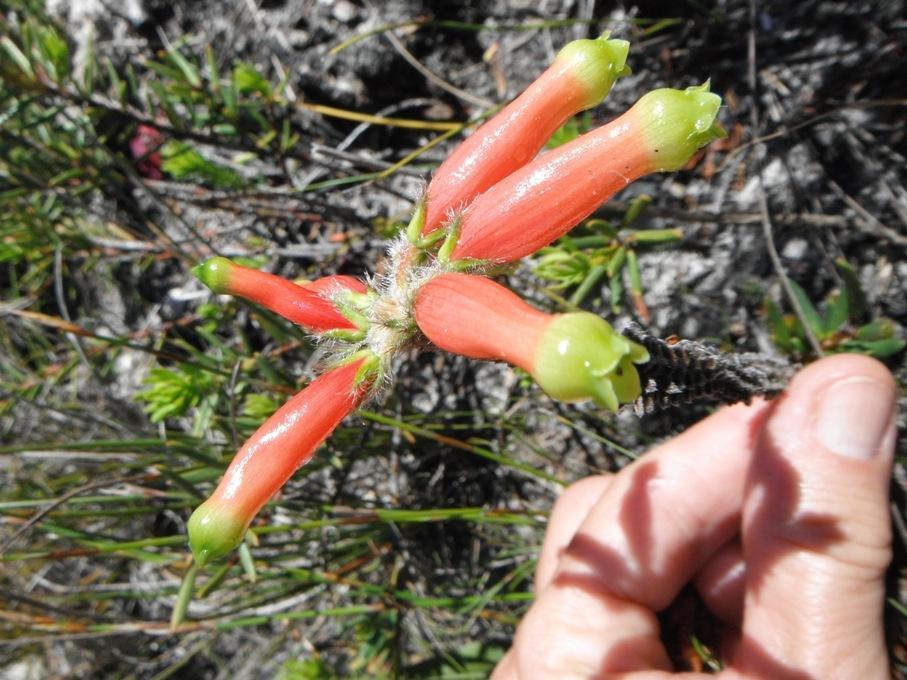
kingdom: Plantae
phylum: Tracheophyta
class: Magnoliopsida
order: Ericales
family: Ericaceae
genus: Erica
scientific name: Erica massonii
